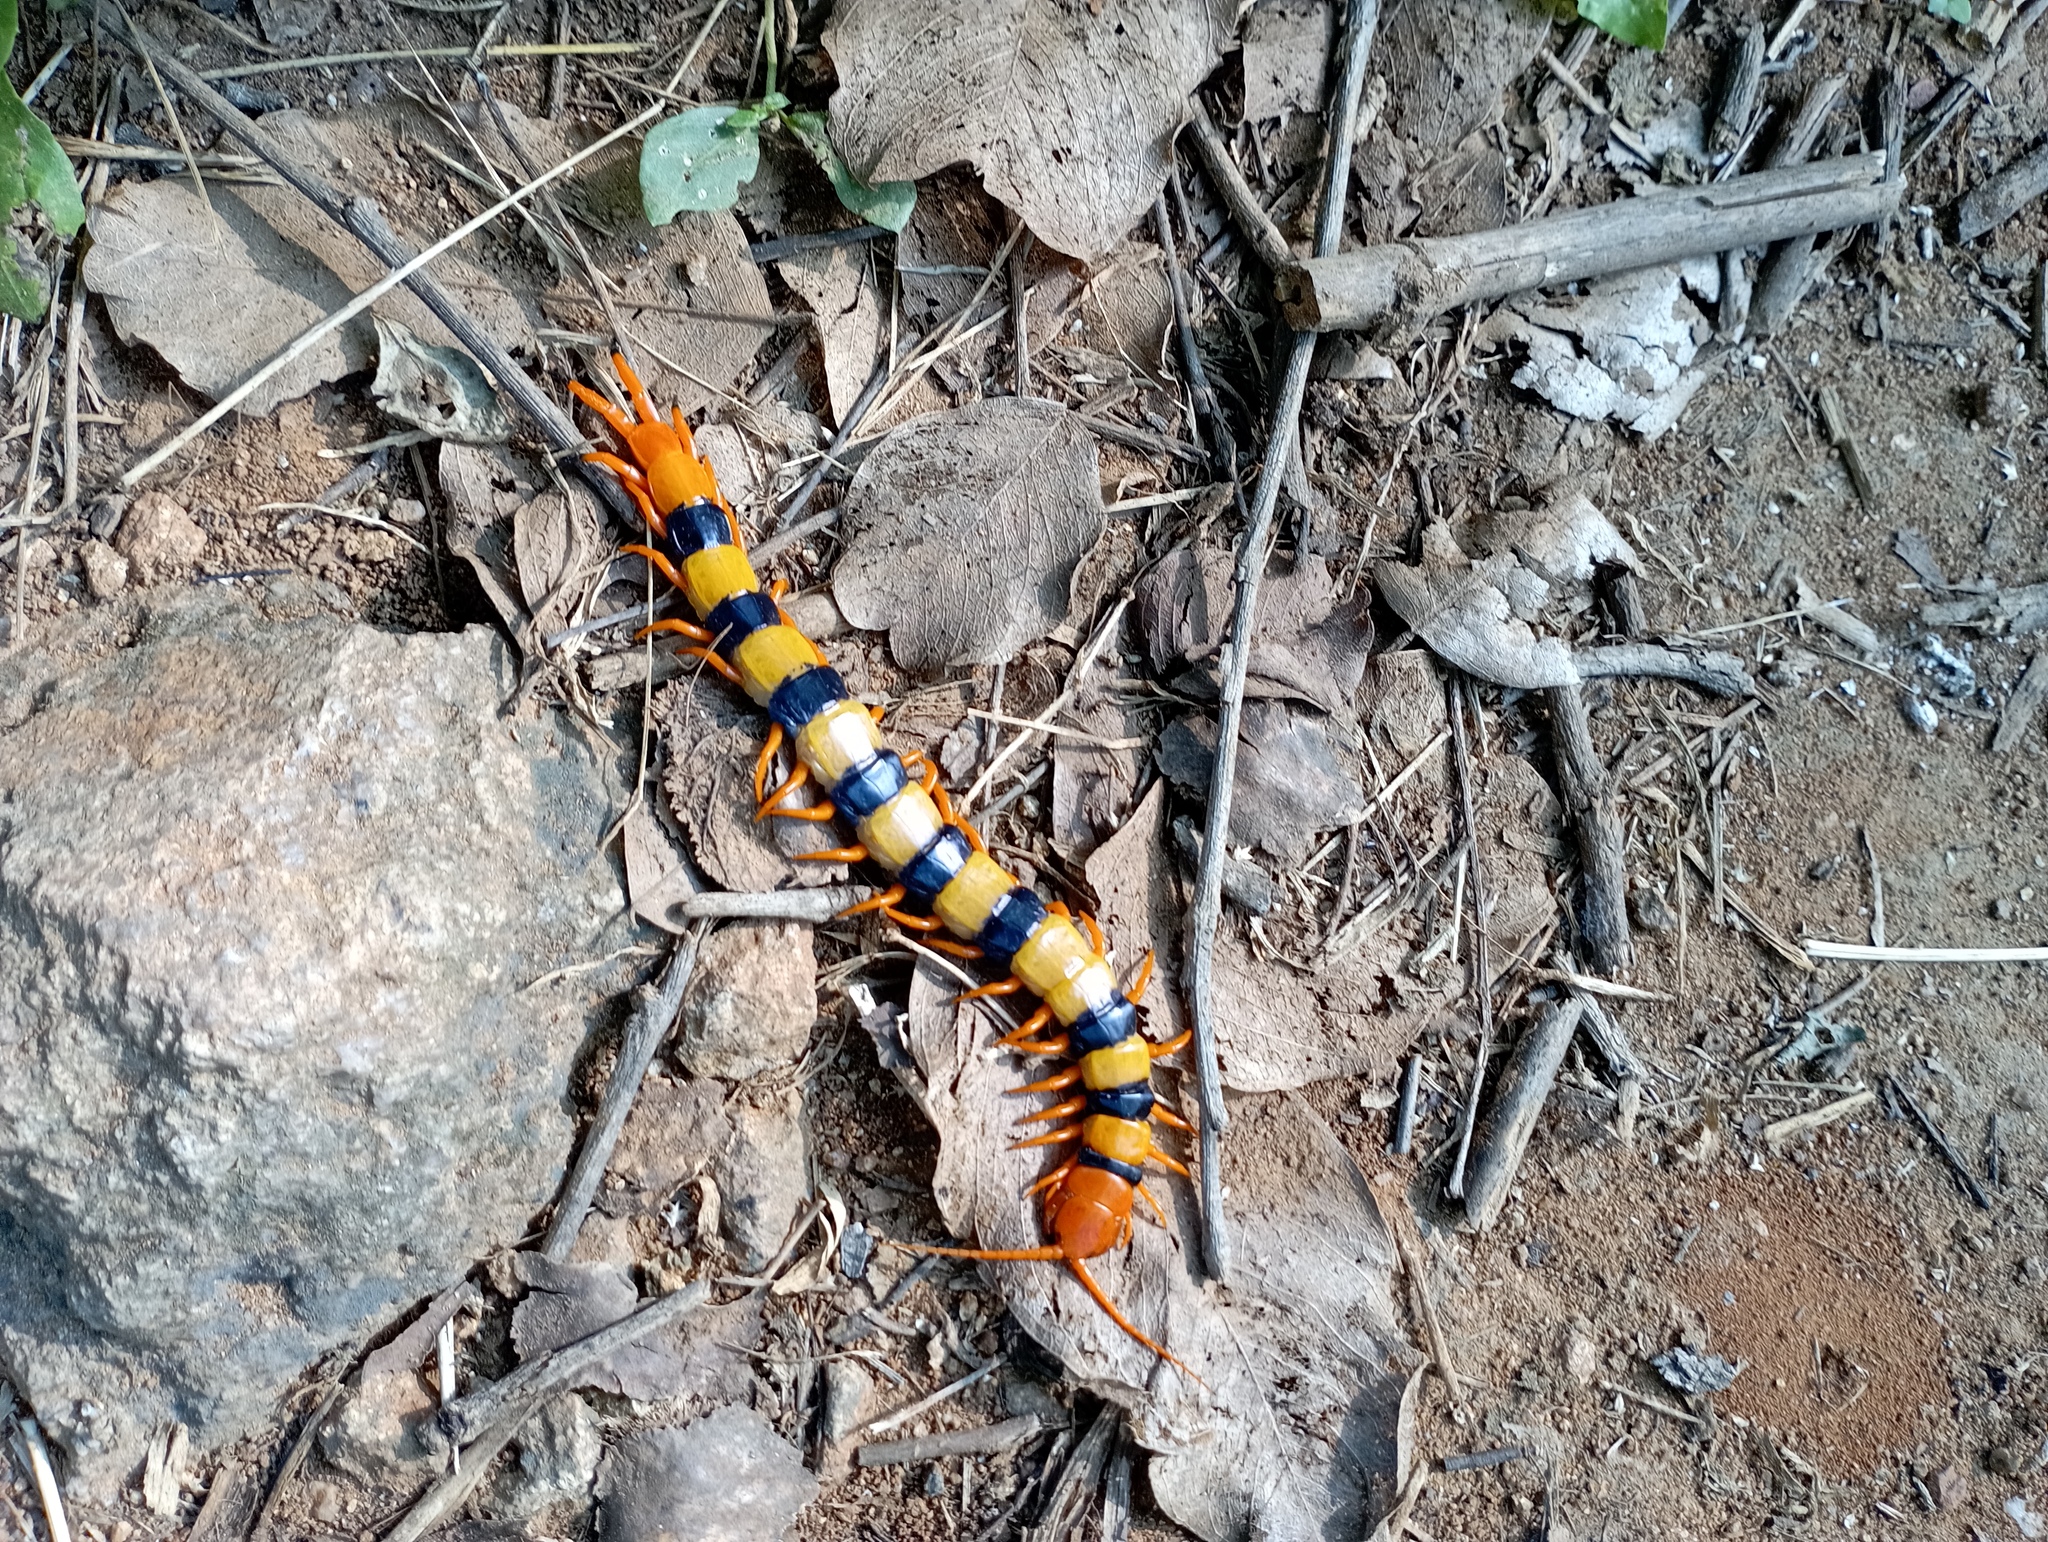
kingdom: Animalia
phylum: Arthropoda
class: Chilopoda
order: Scolopendromorpha
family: Scolopendridae
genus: Scolopendra
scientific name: Scolopendra hardwickei
